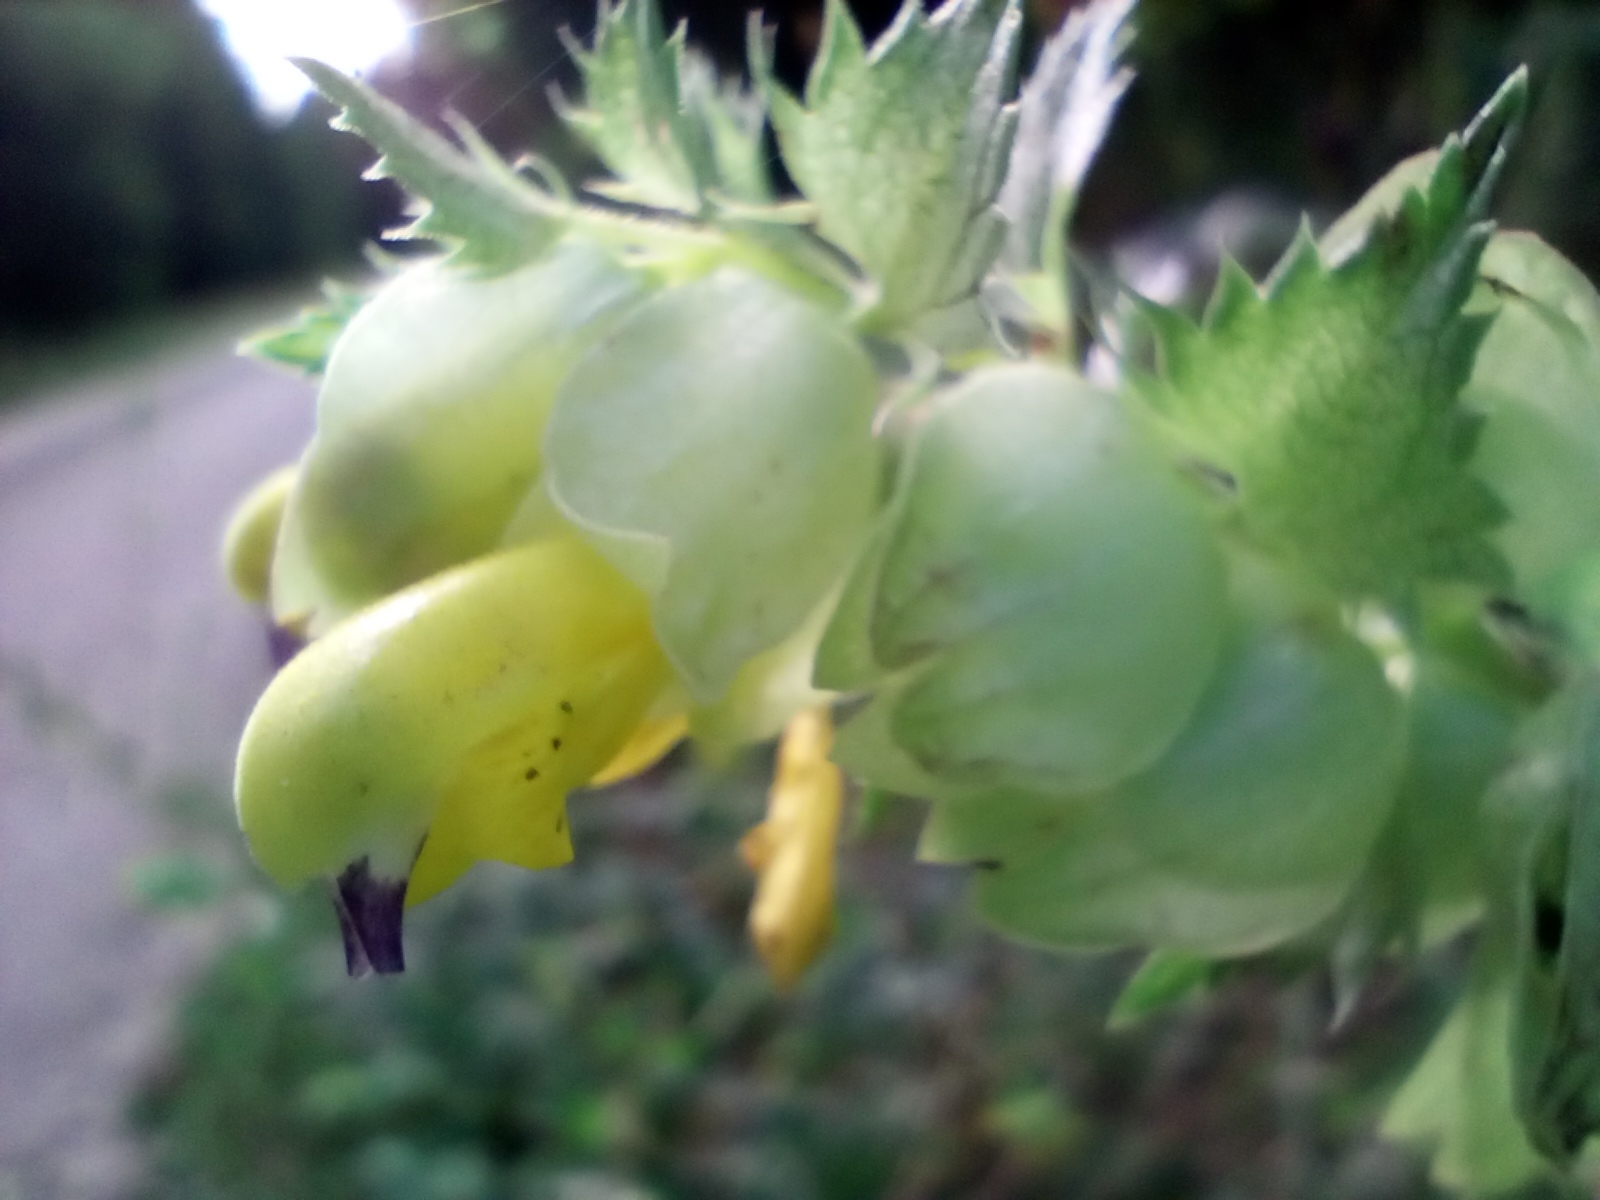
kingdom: Plantae
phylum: Tracheophyta
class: Magnoliopsida
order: Lamiales
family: Orobanchaceae
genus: Rhinanthus
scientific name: Rhinanthus serotinus
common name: Late-flowering yellow rattle
